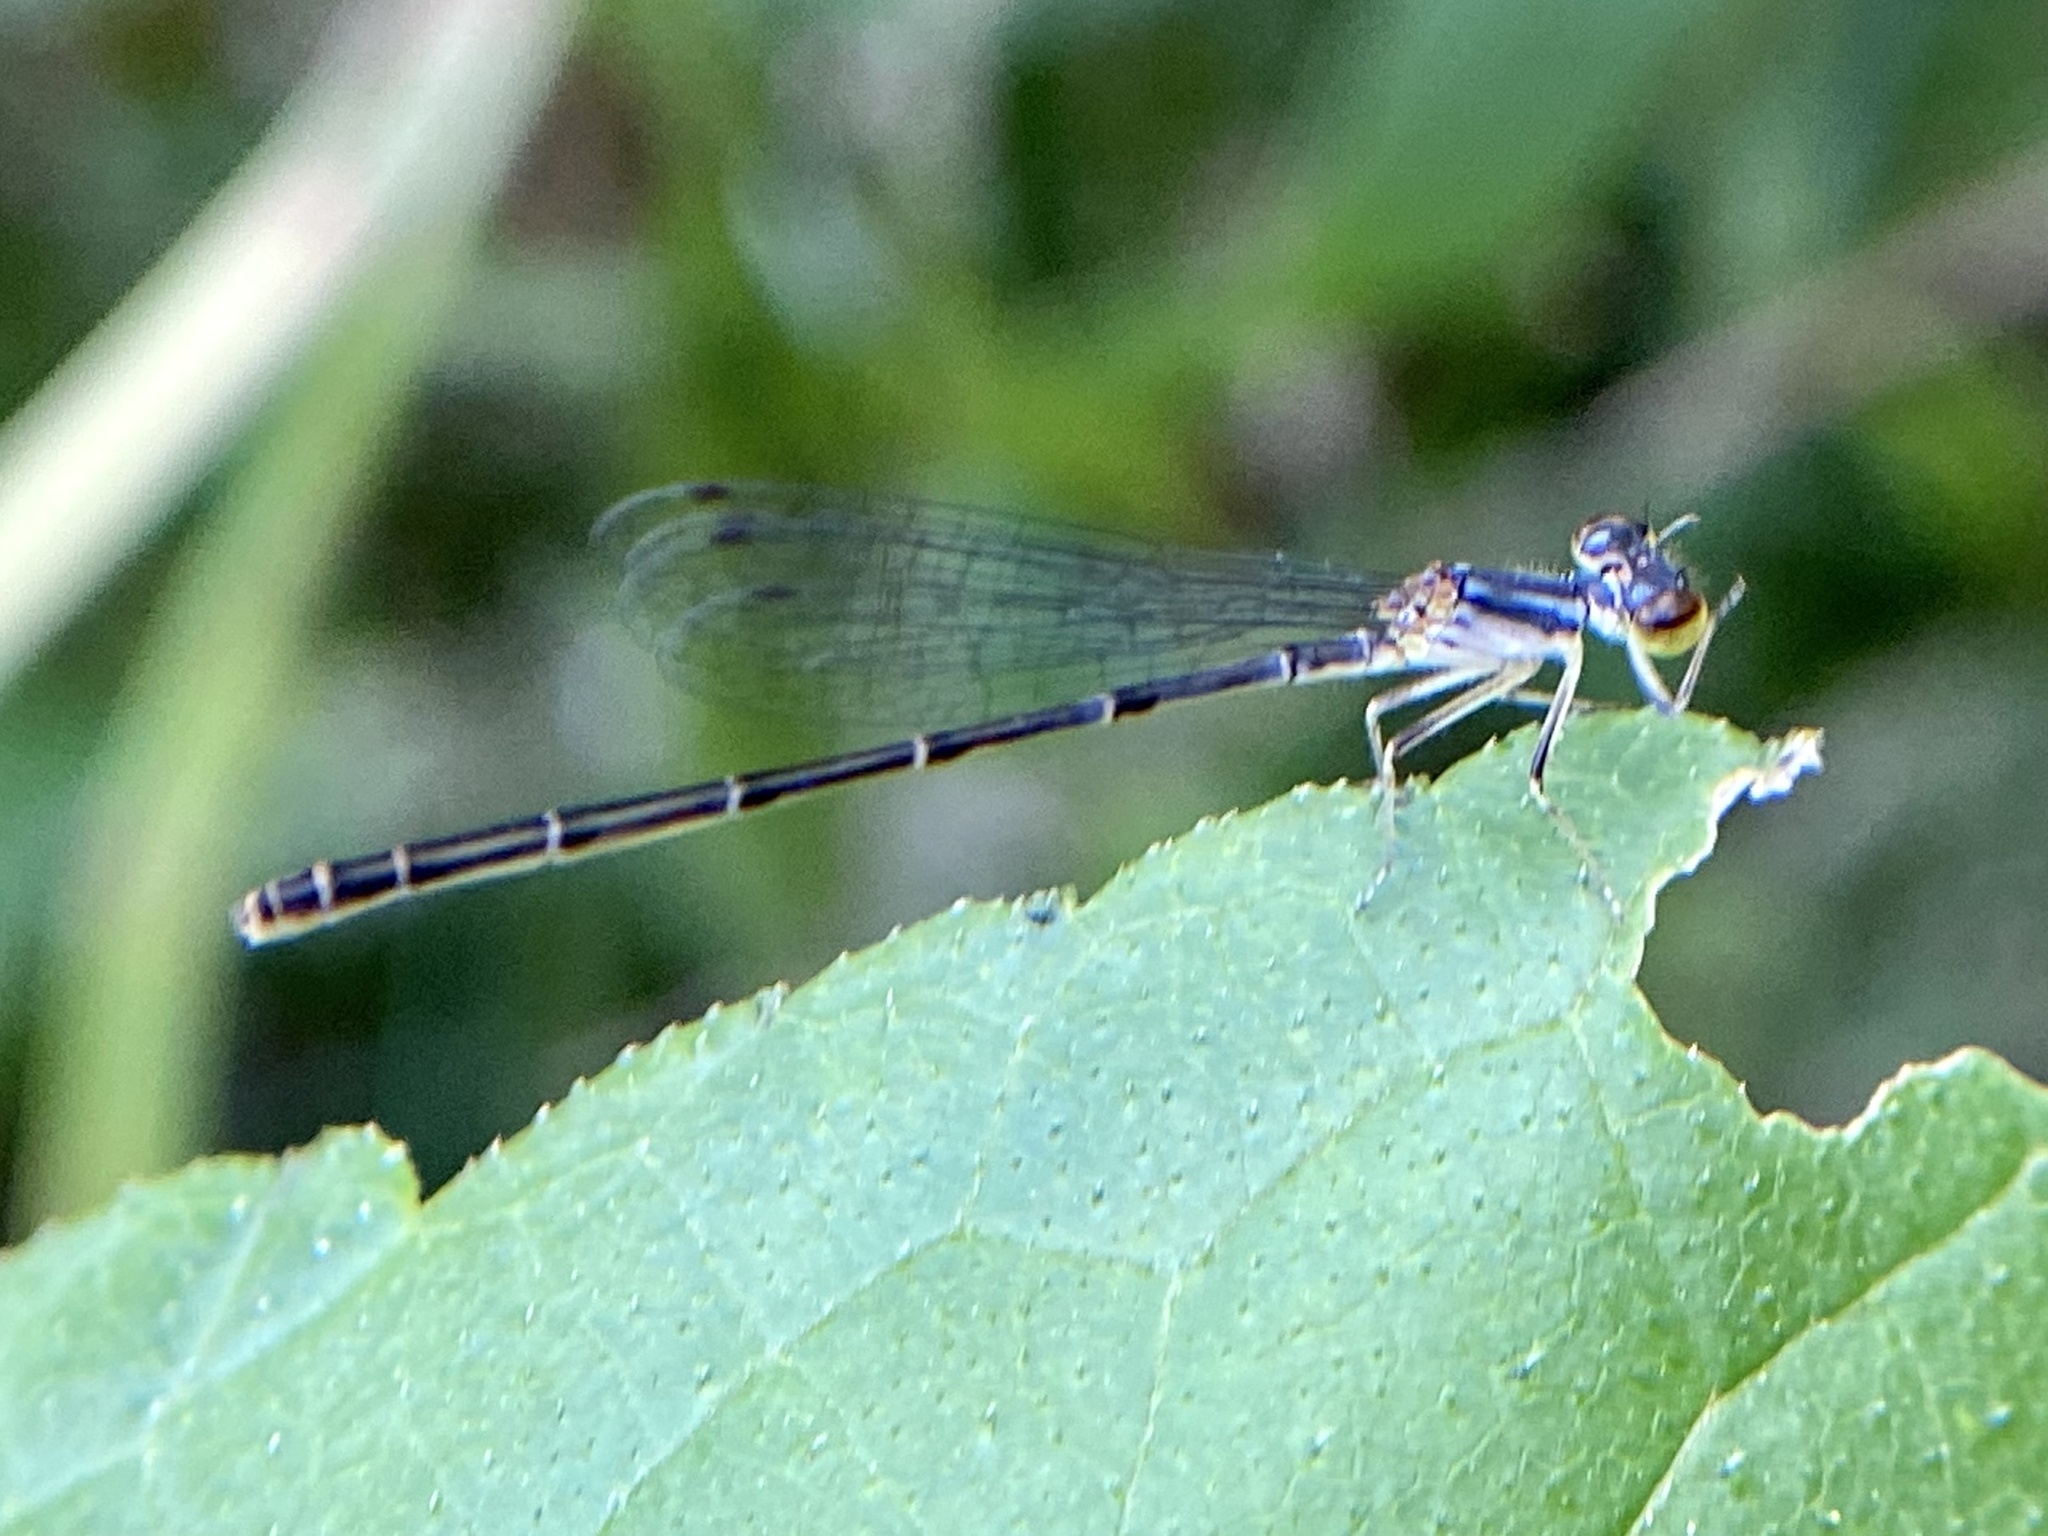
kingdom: Animalia
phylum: Arthropoda
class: Insecta
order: Odonata
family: Coenagrionidae
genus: Ischnura
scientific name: Ischnura posita
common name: Fragile forktail
